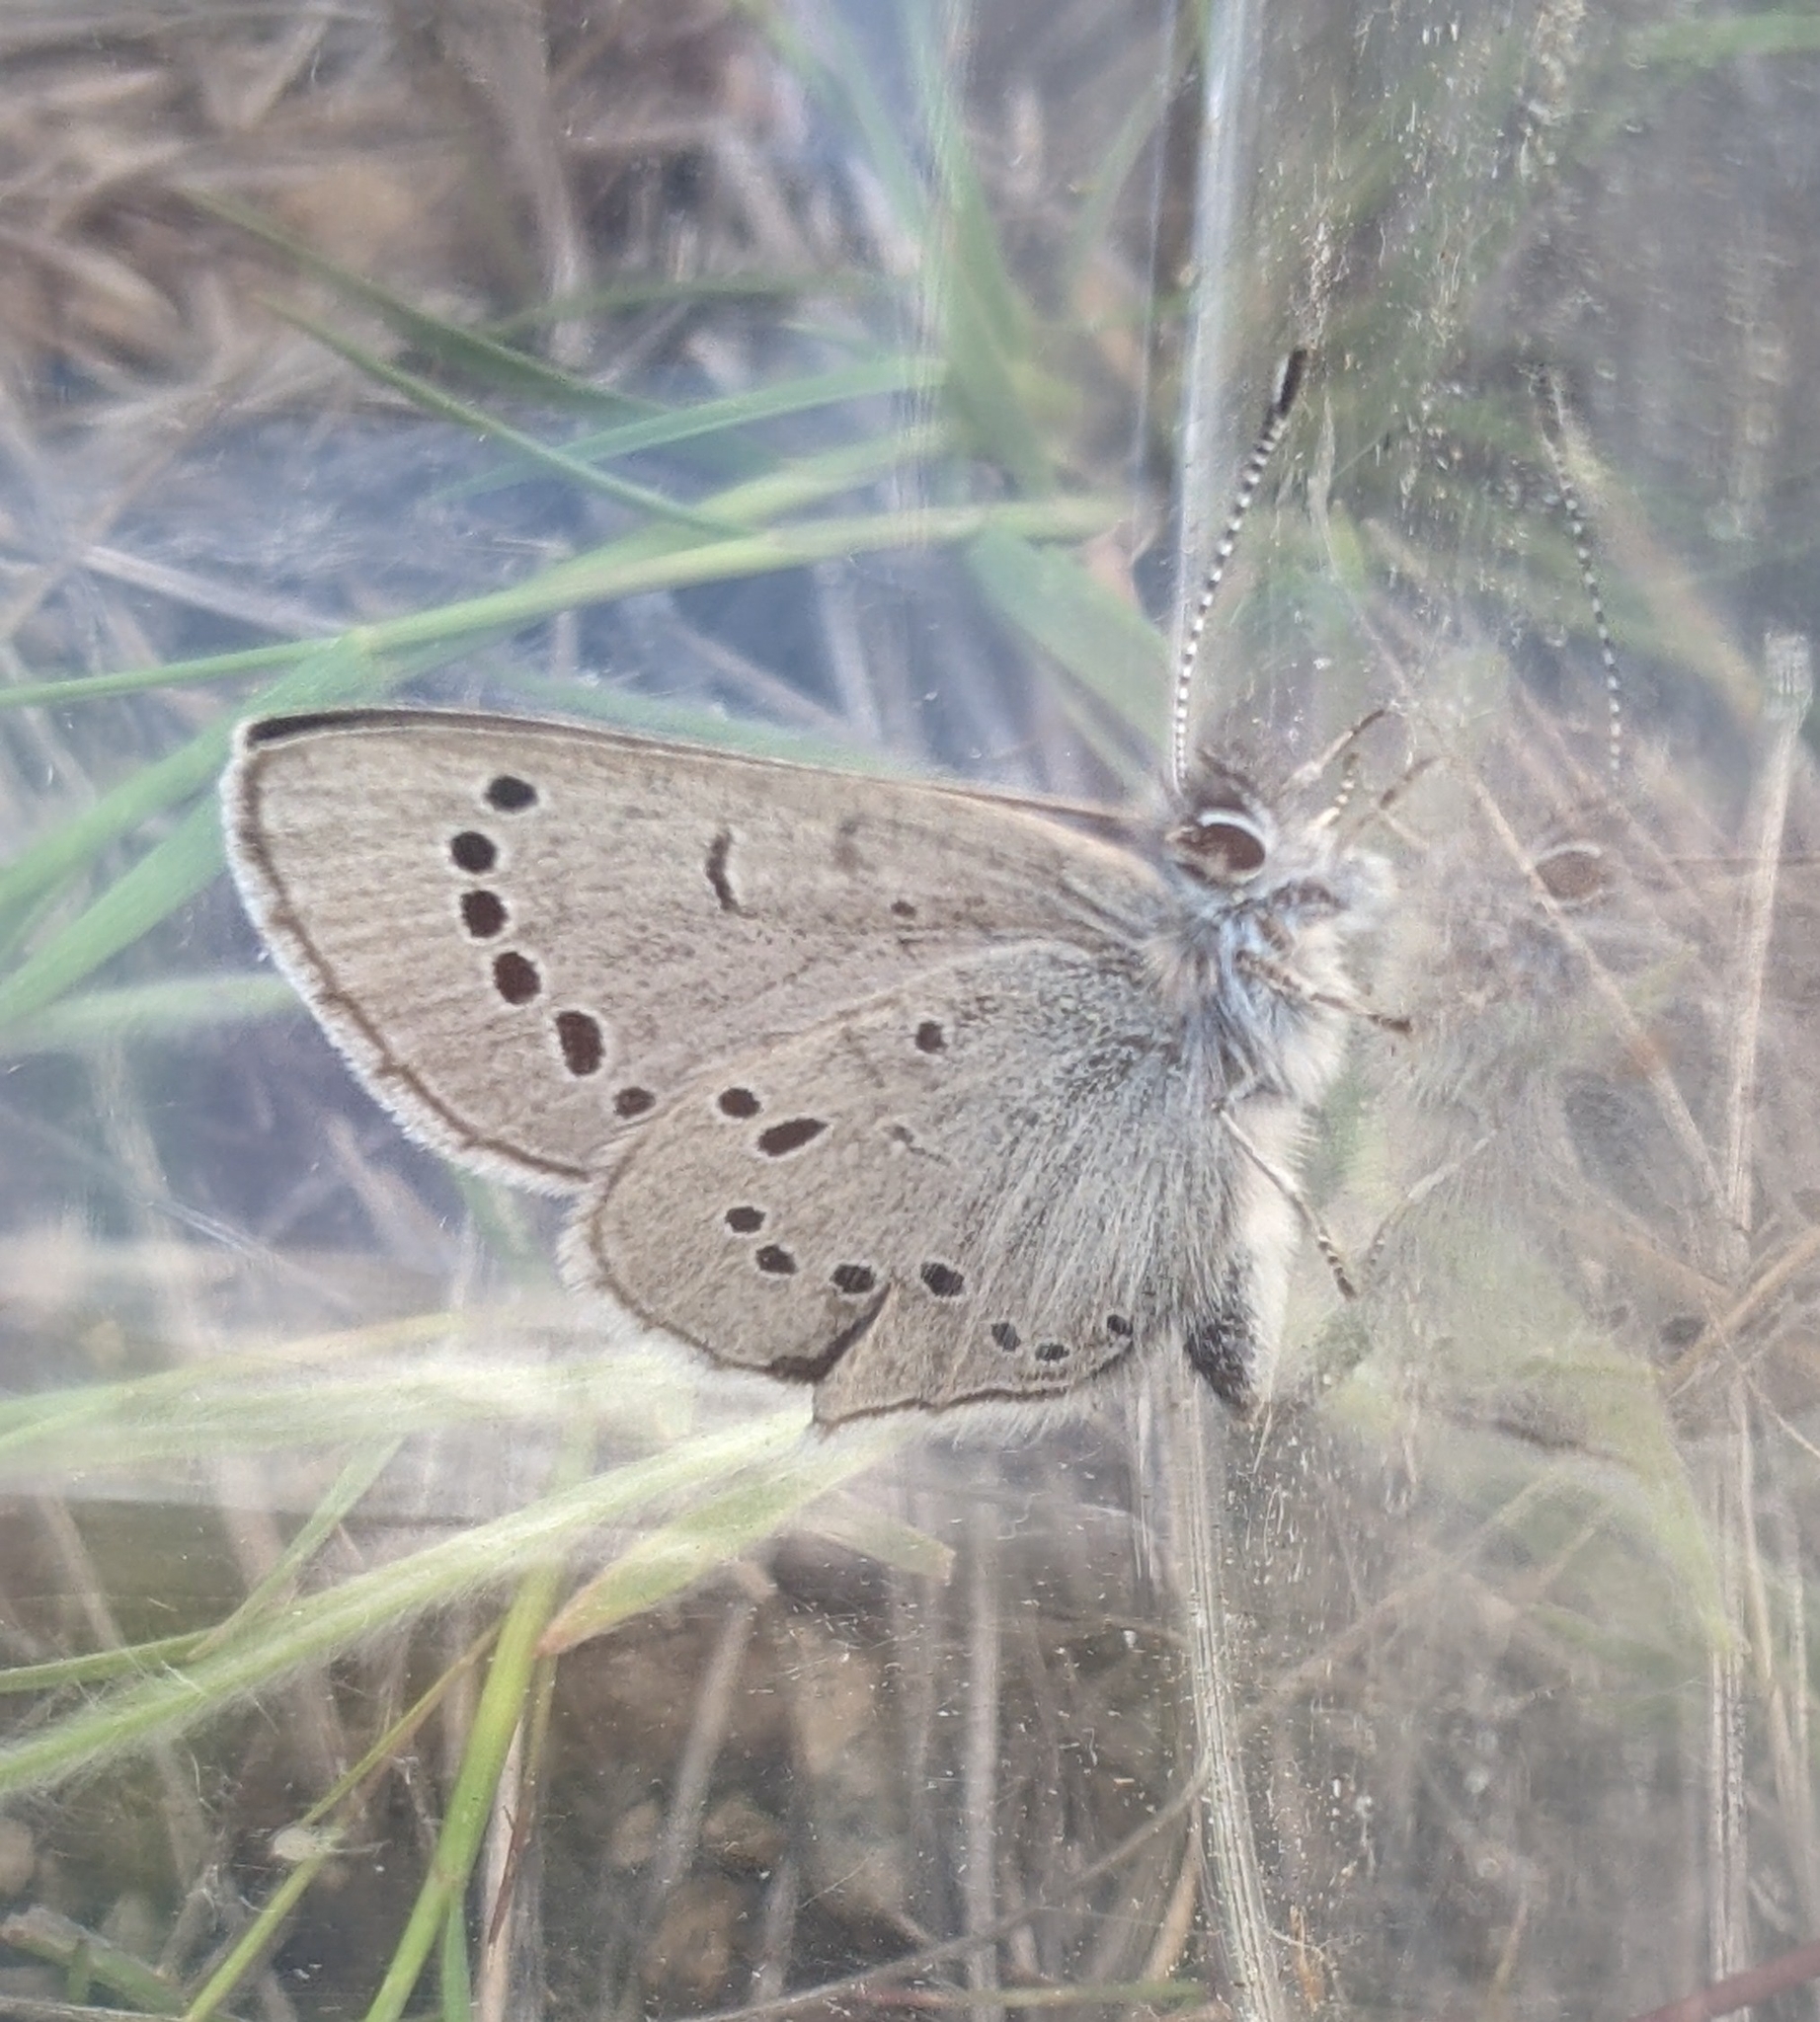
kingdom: Animalia
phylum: Arthropoda
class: Insecta
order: Lepidoptera
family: Lycaenidae
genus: Glaucopsyche
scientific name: Glaucopsyche lygdamus
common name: Silvery blue
